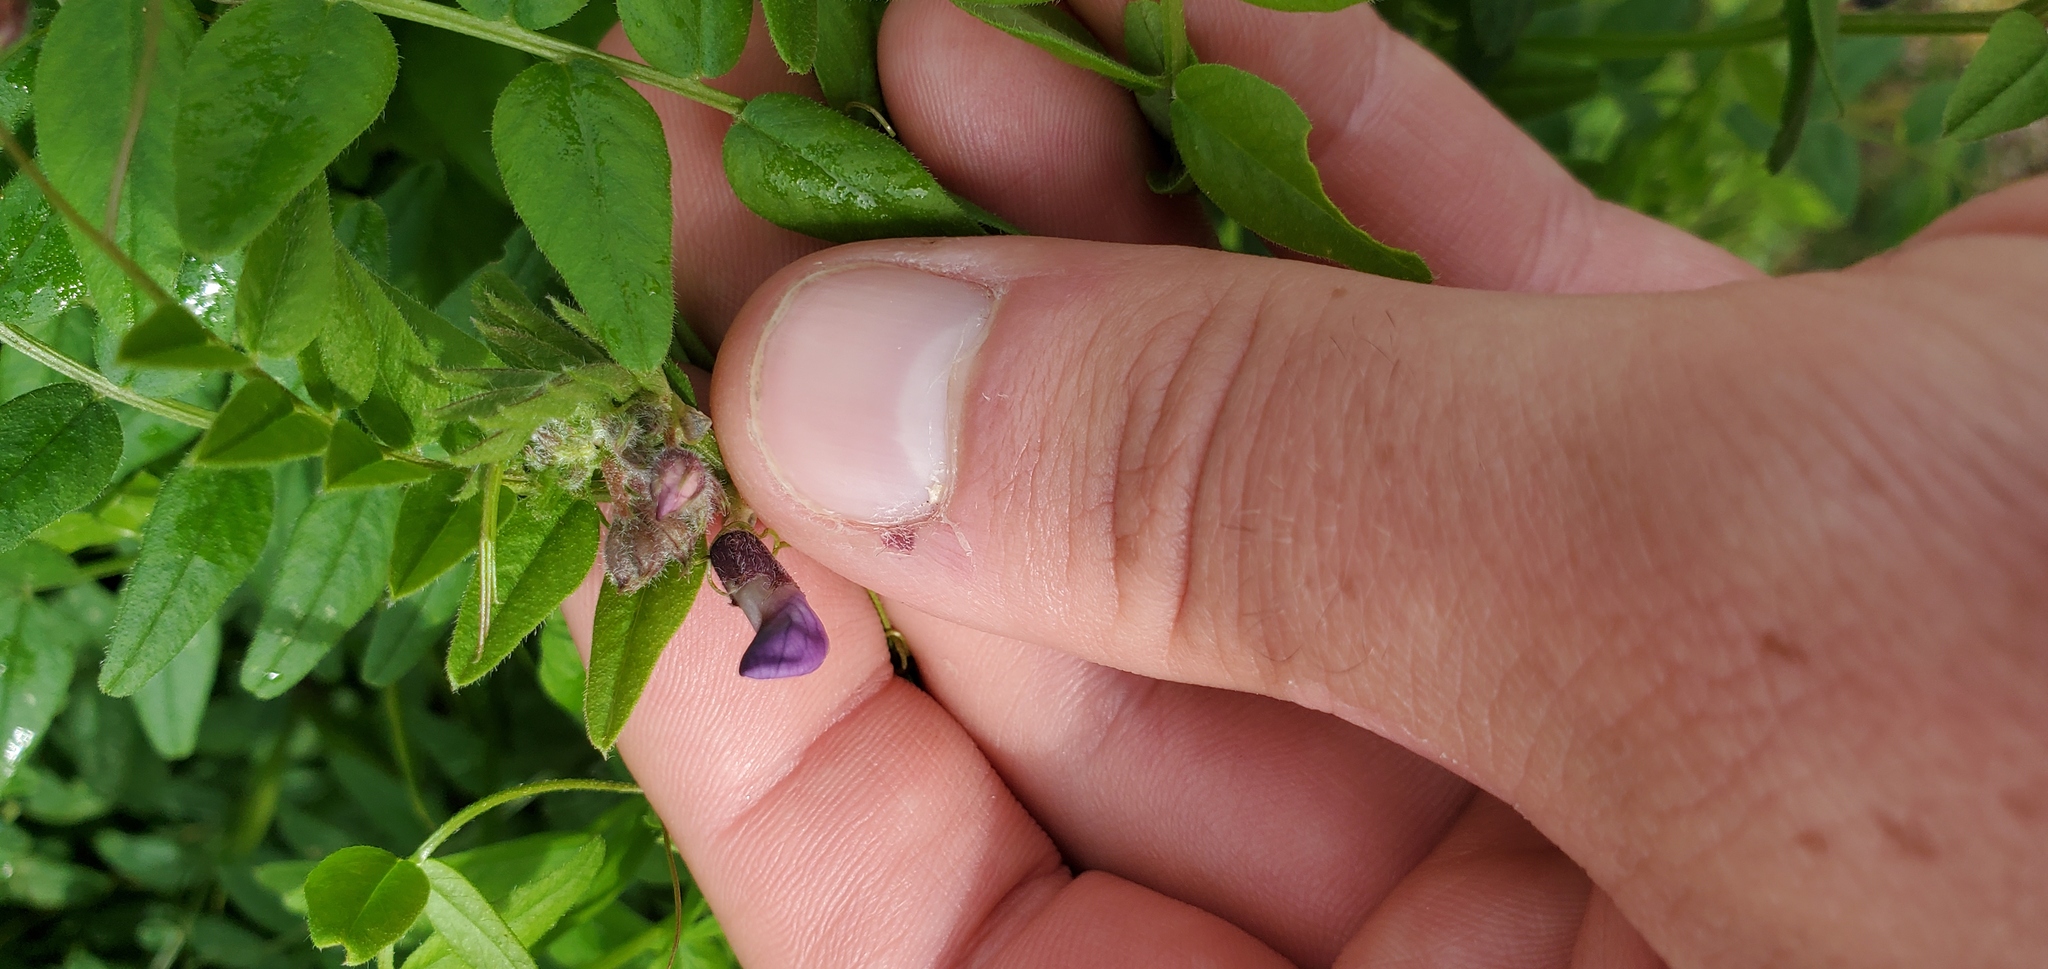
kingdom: Plantae
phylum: Tracheophyta
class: Magnoliopsida
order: Fabales
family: Fabaceae
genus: Vicia
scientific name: Vicia sepium
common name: Bush vetch
